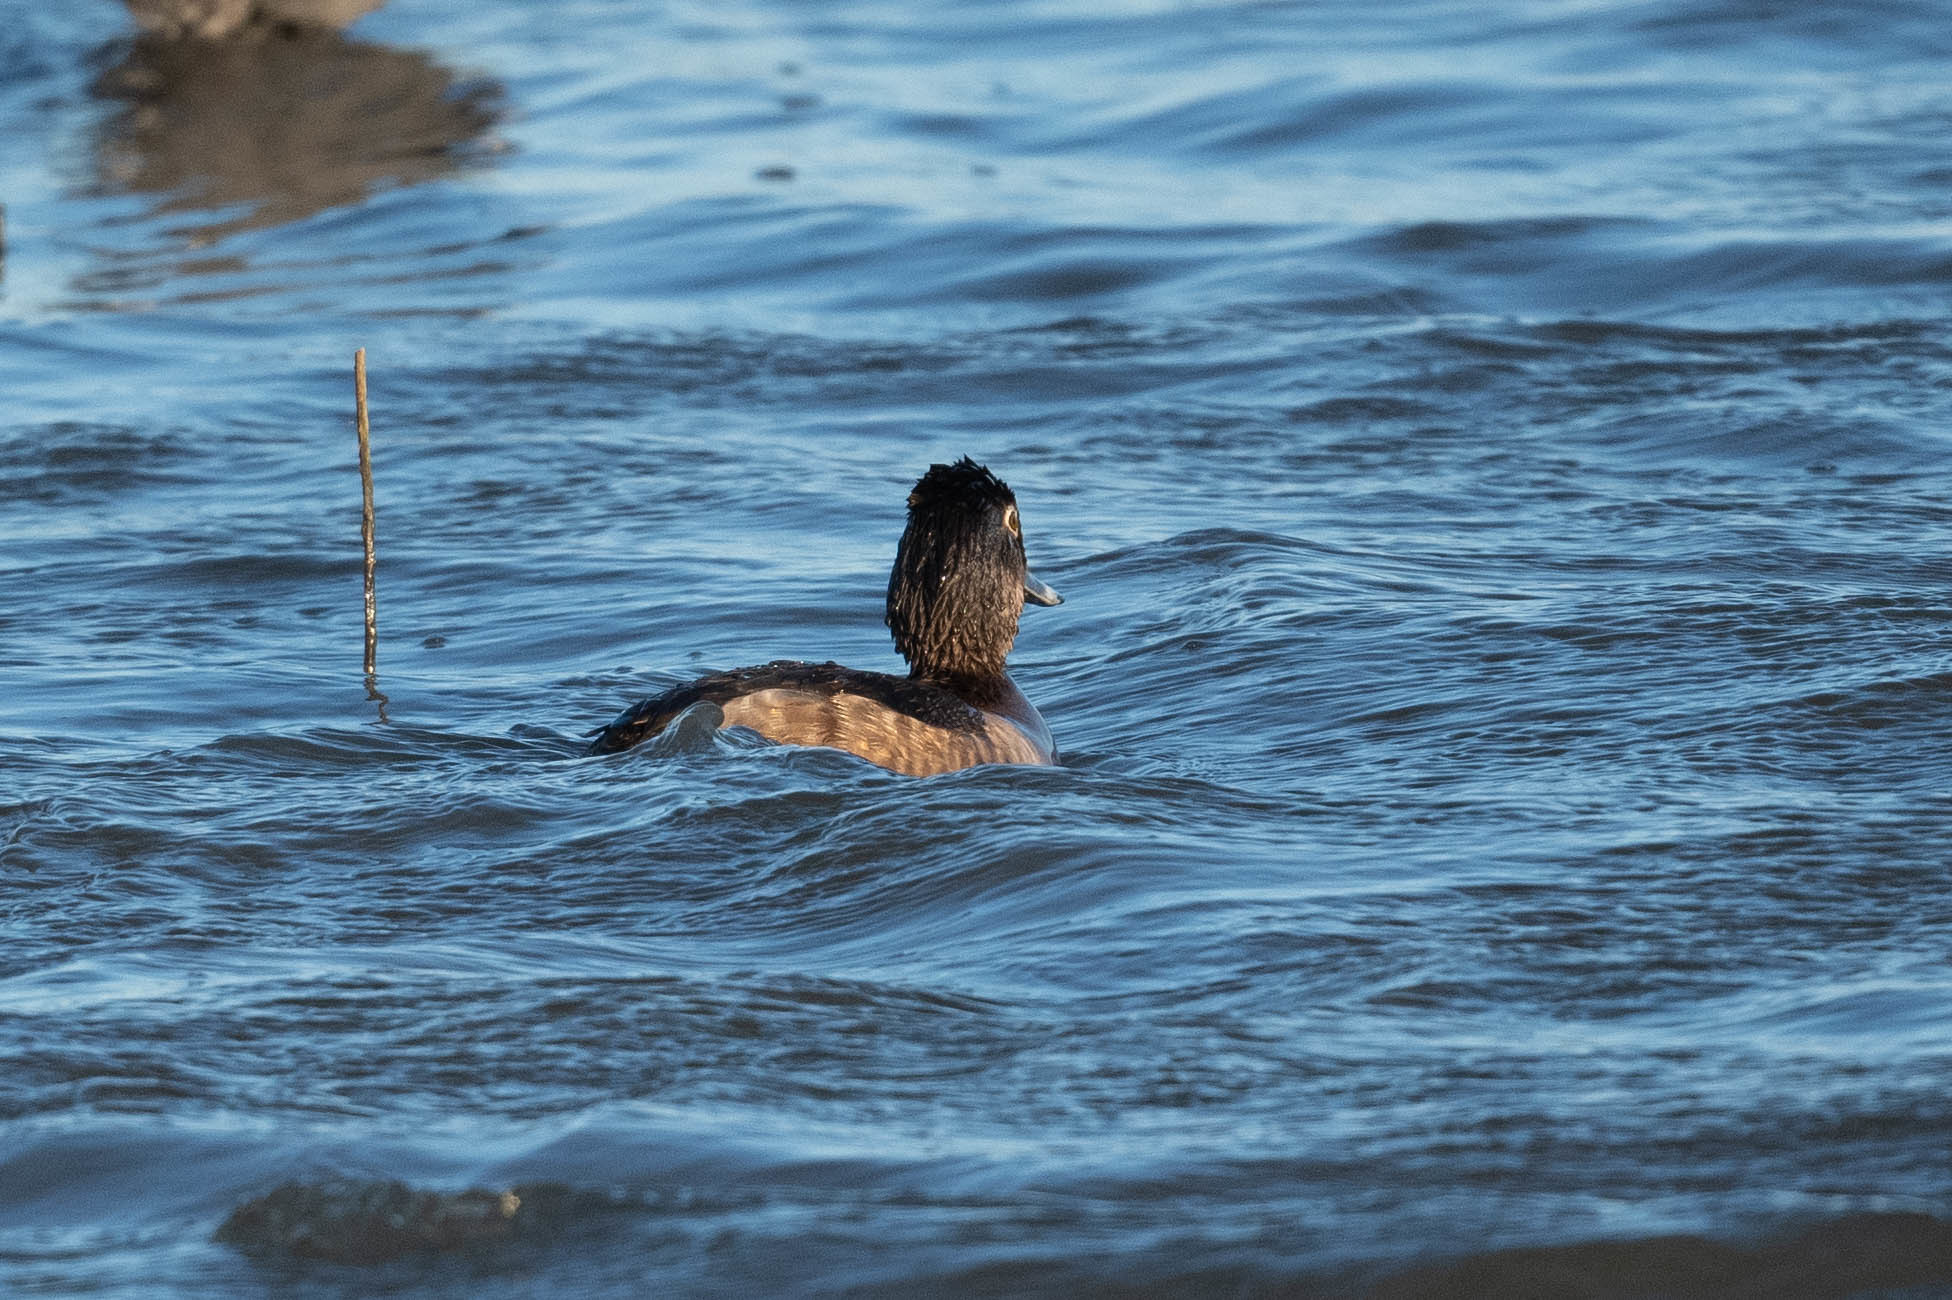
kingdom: Animalia
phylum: Chordata
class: Aves
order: Anseriformes
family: Anatidae
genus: Aythya
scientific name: Aythya collaris
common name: Ring-necked duck
